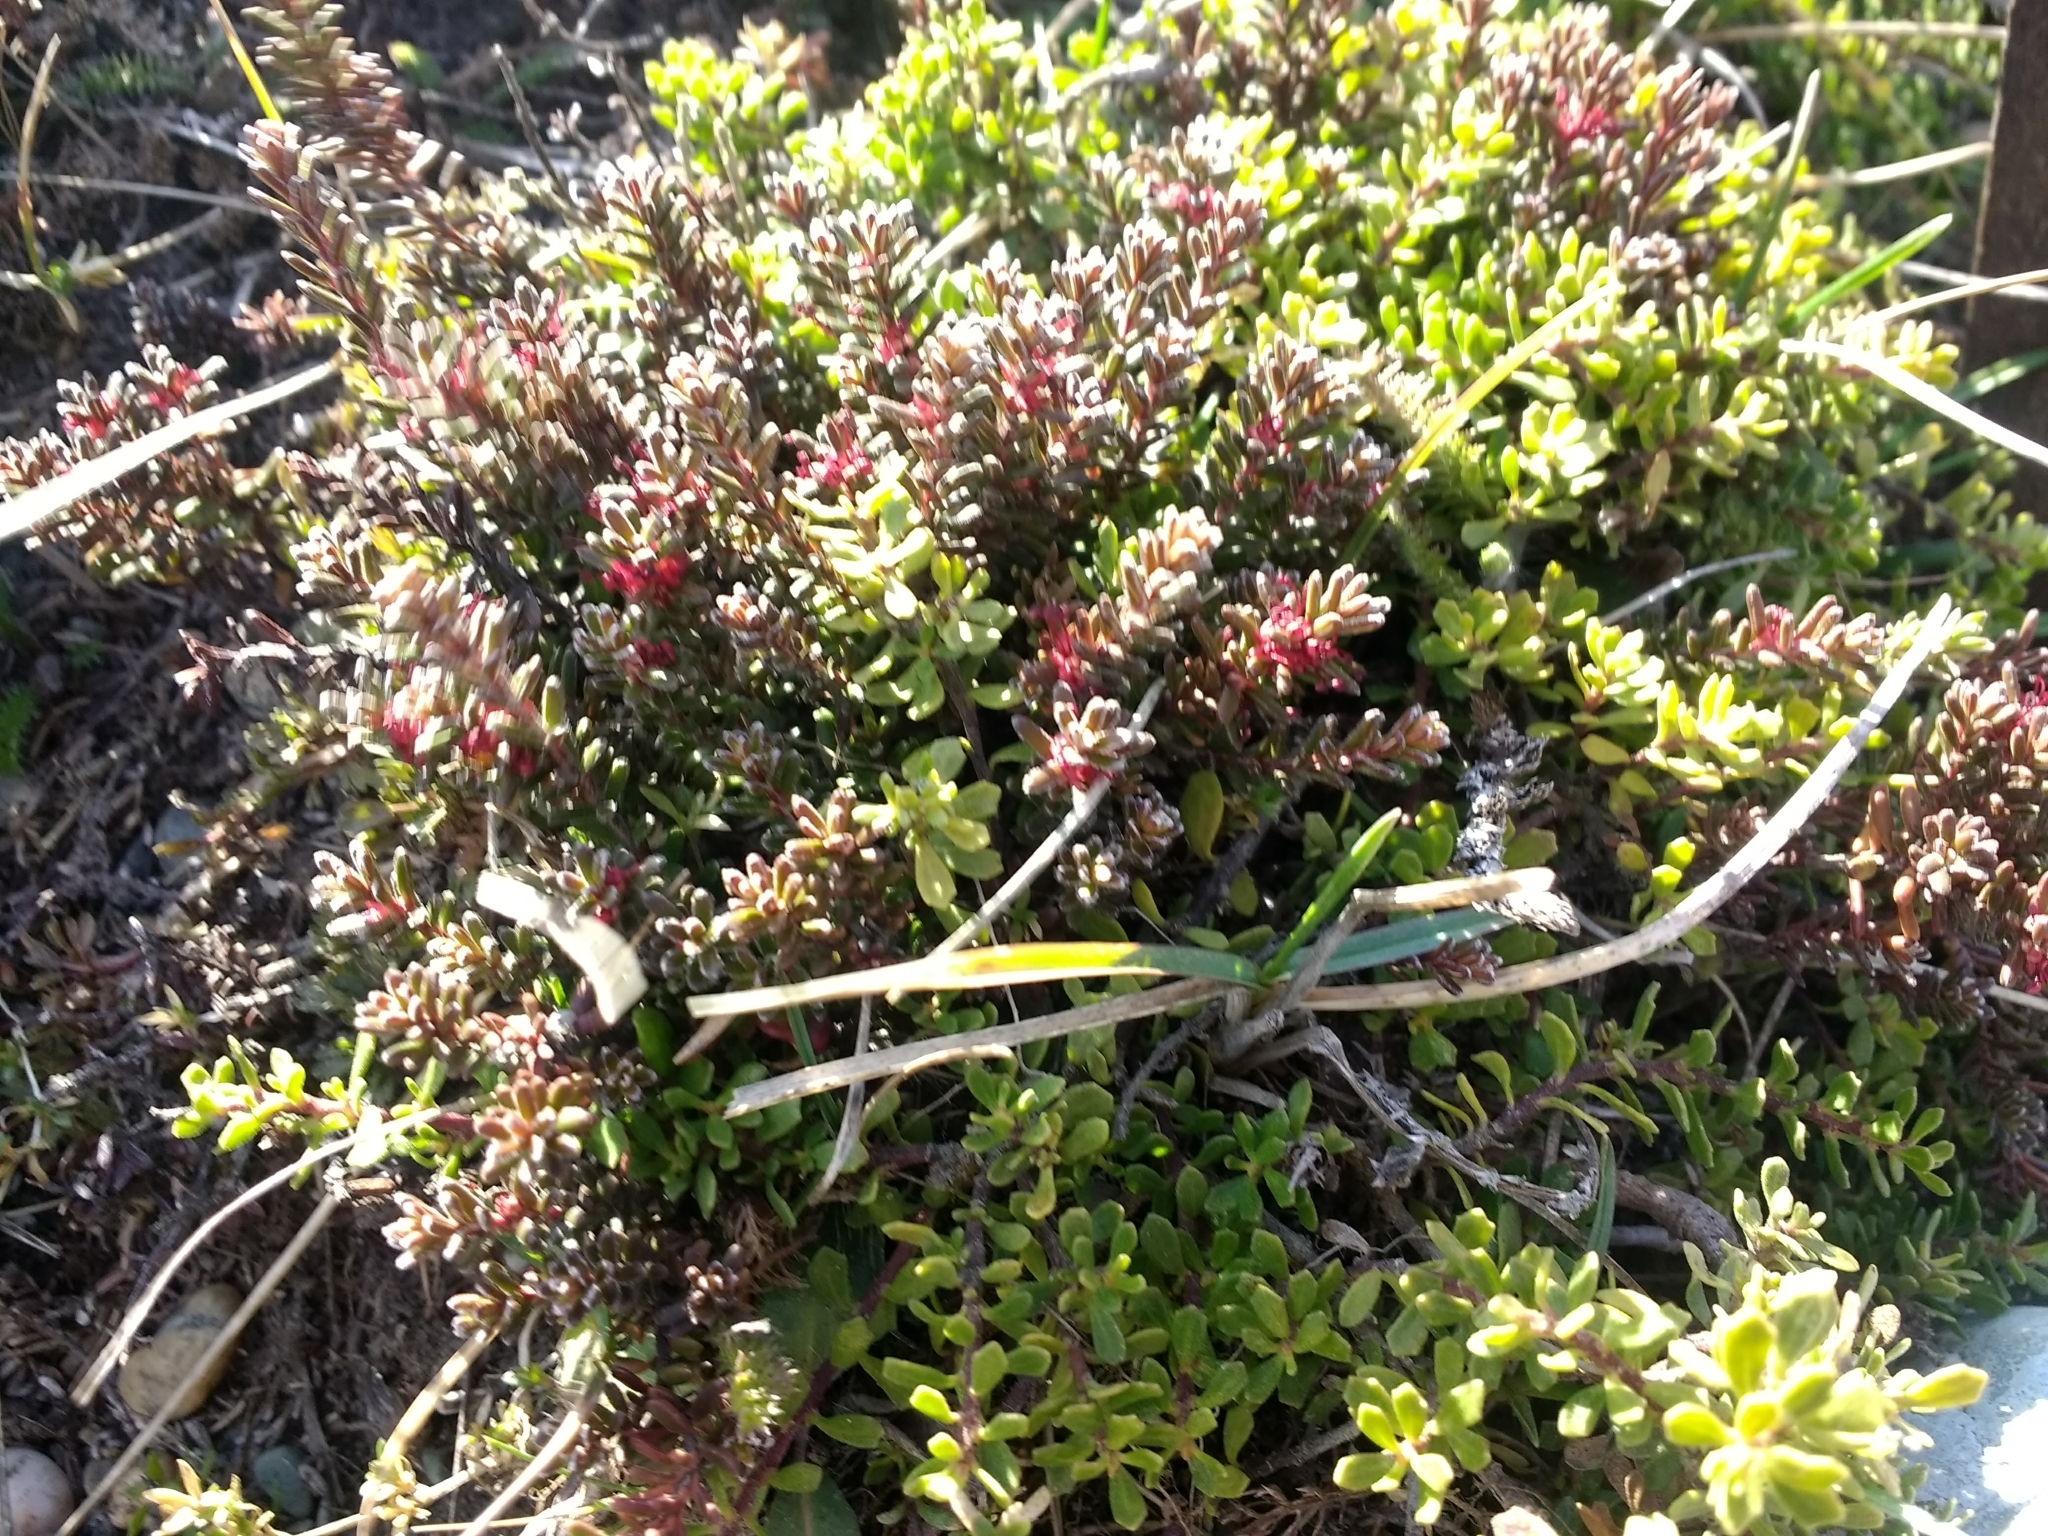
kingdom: Plantae
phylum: Tracheophyta
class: Magnoliopsida
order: Ericales
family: Ericaceae
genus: Empetrum
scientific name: Empetrum rubrum
